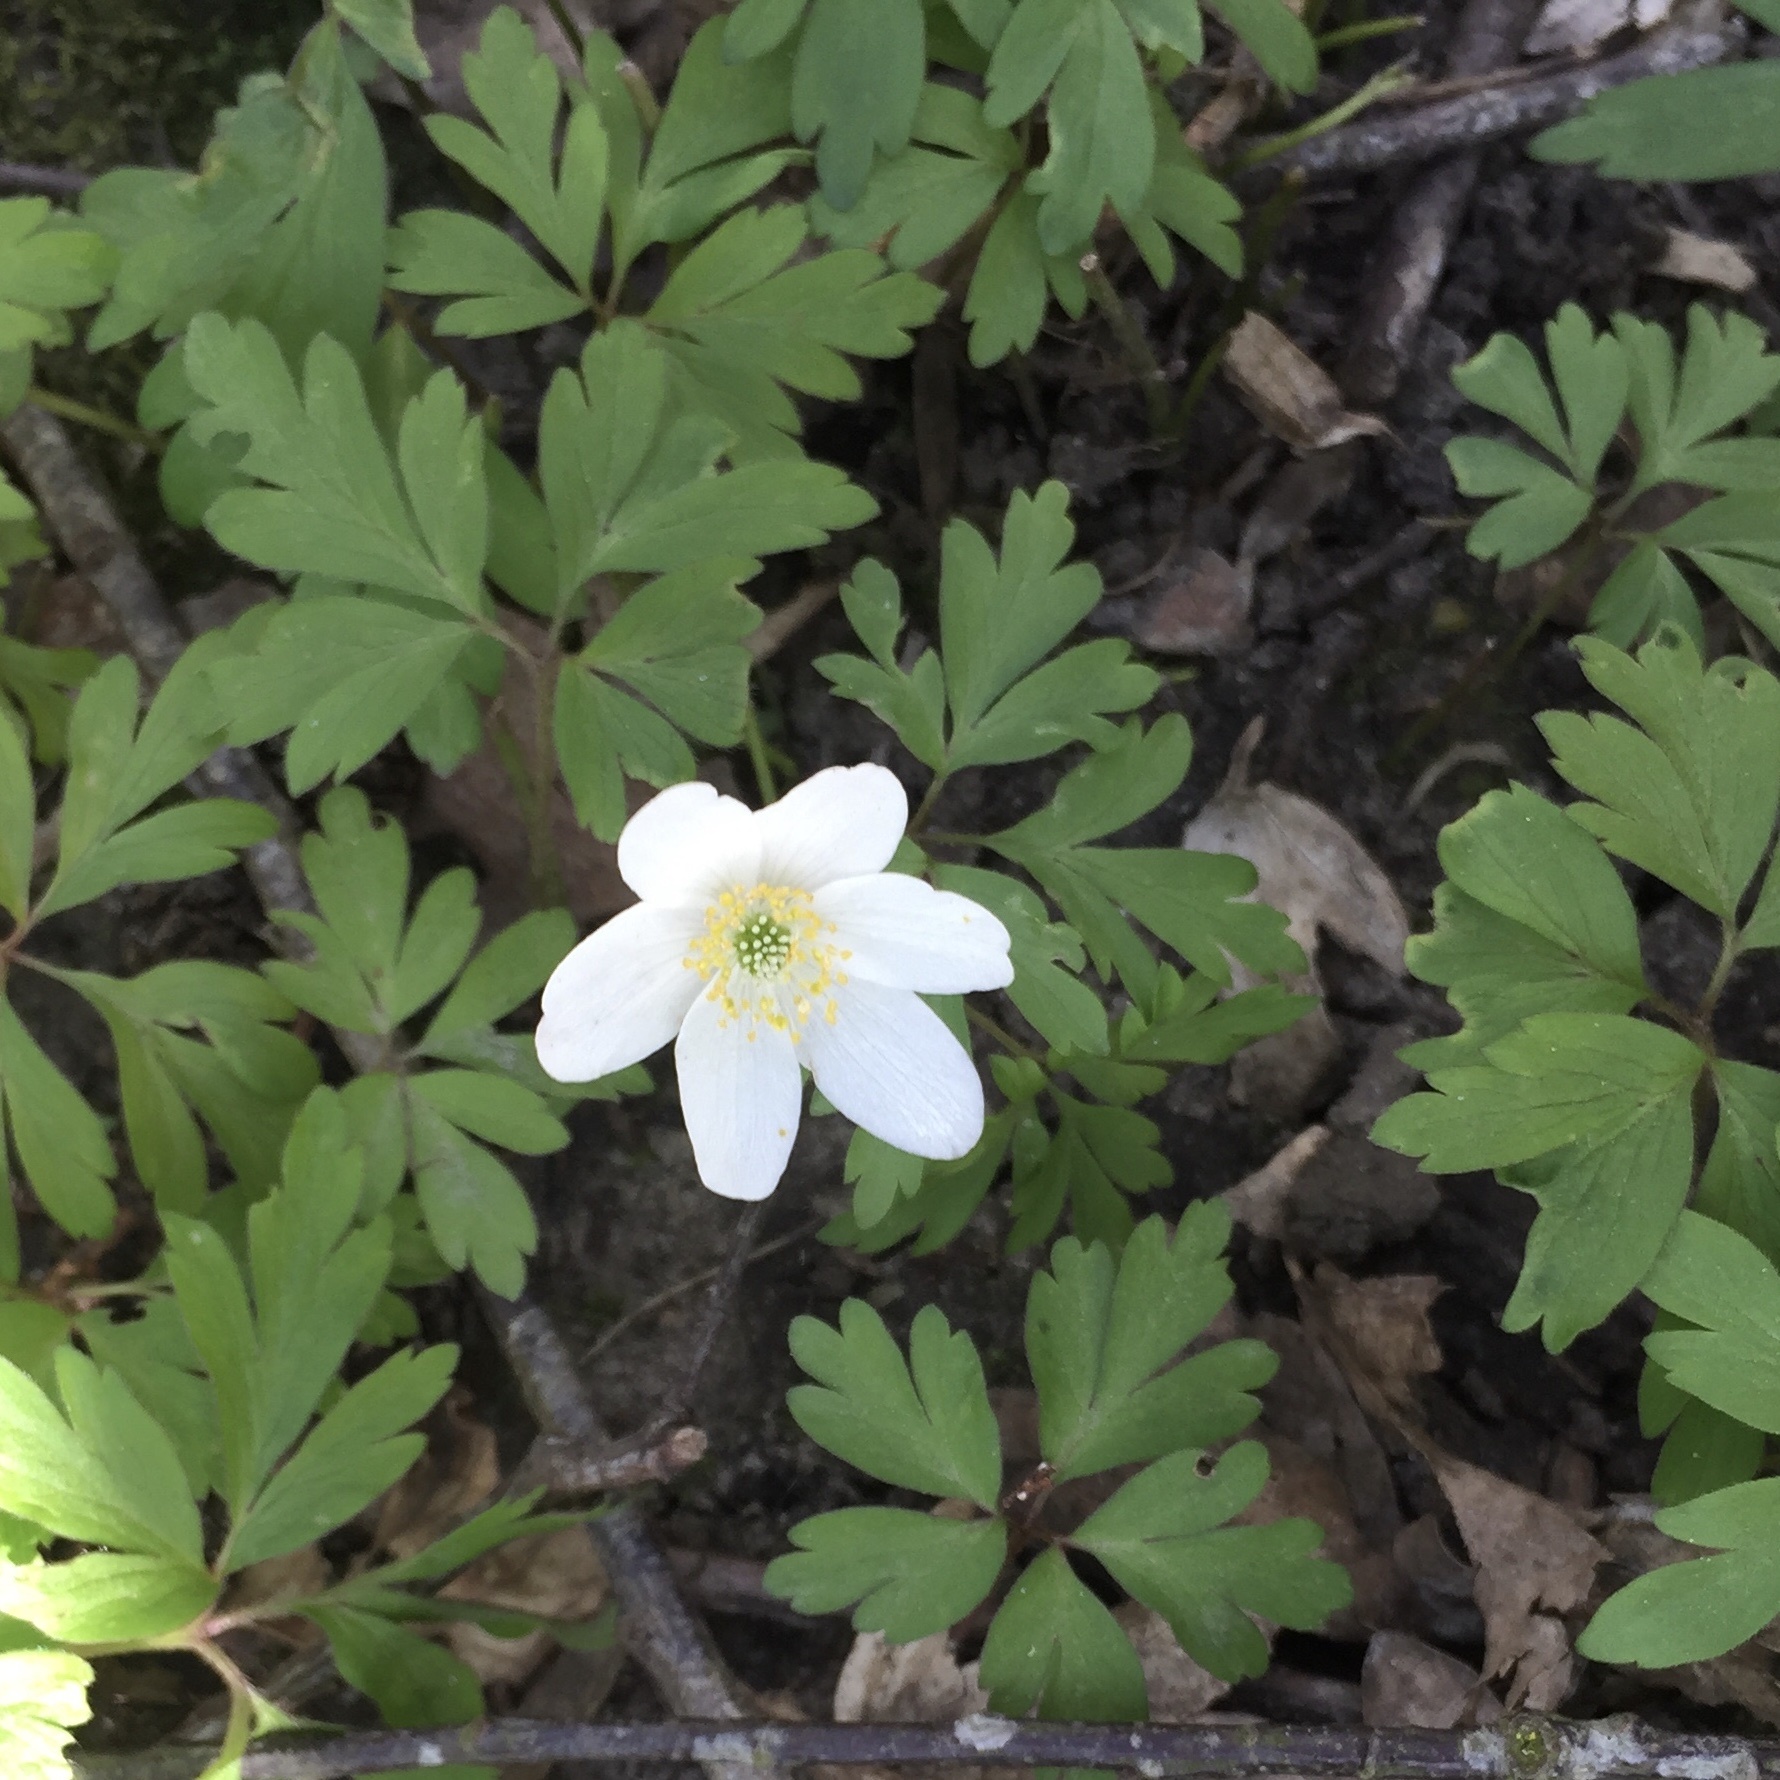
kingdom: Plantae
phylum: Tracheophyta
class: Magnoliopsida
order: Ranunculales
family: Ranunculaceae
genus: Anemone
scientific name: Anemone nemorosa
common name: Wood anemone
